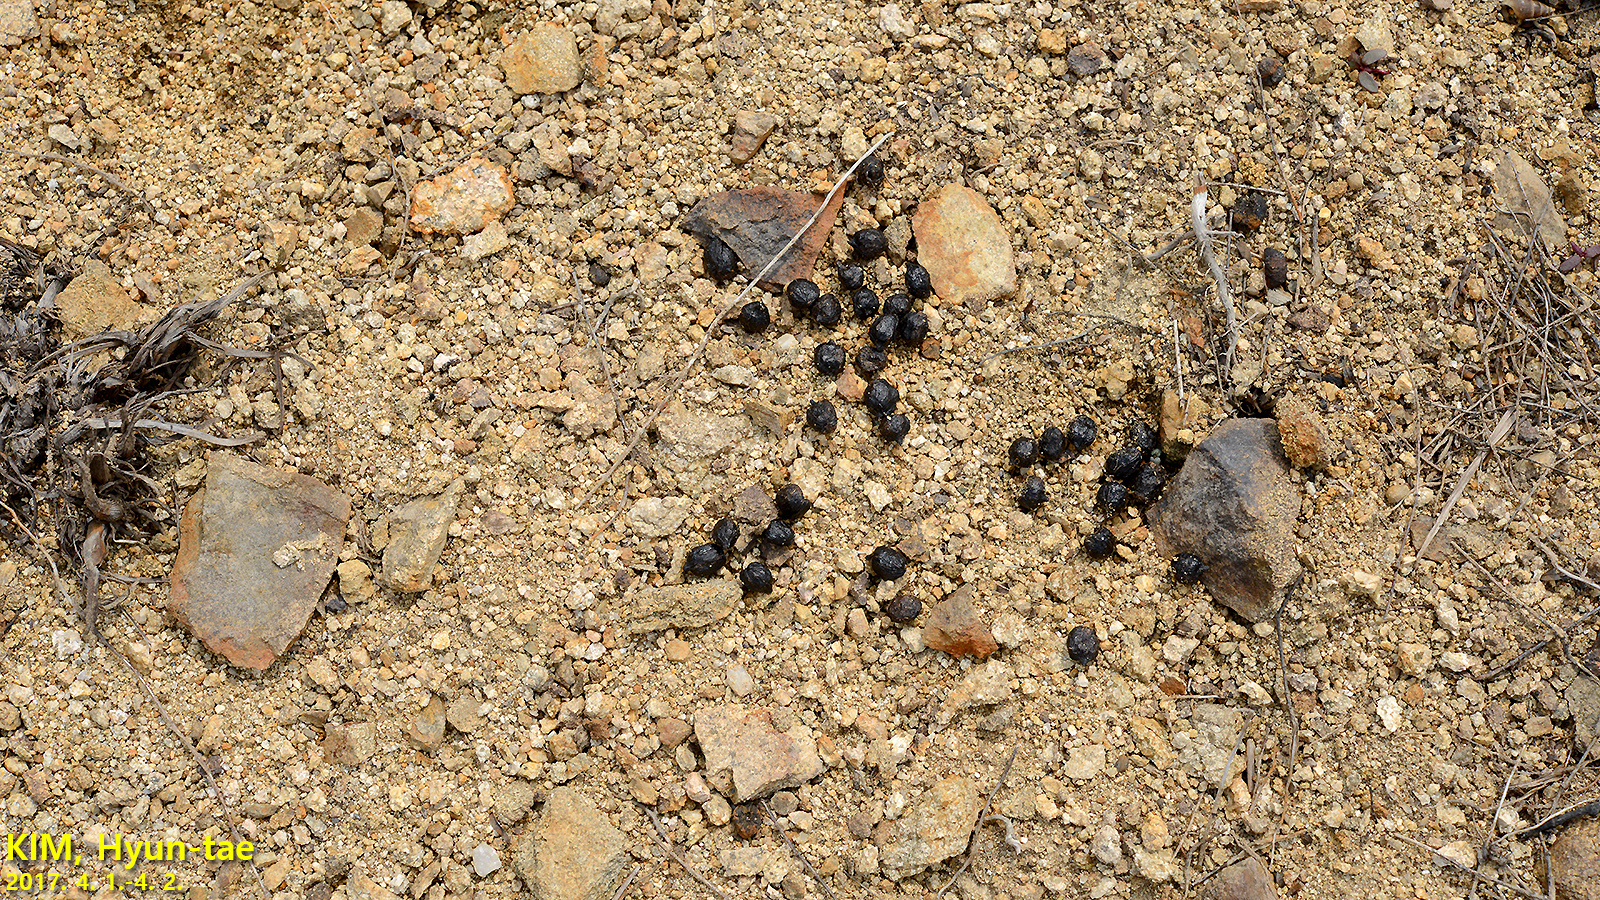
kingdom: Animalia
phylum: Chordata
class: Mammalia
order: Artiodactyla
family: Cervidae
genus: Hydropotes
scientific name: Hydropotes inermis
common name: Chinese water deer
